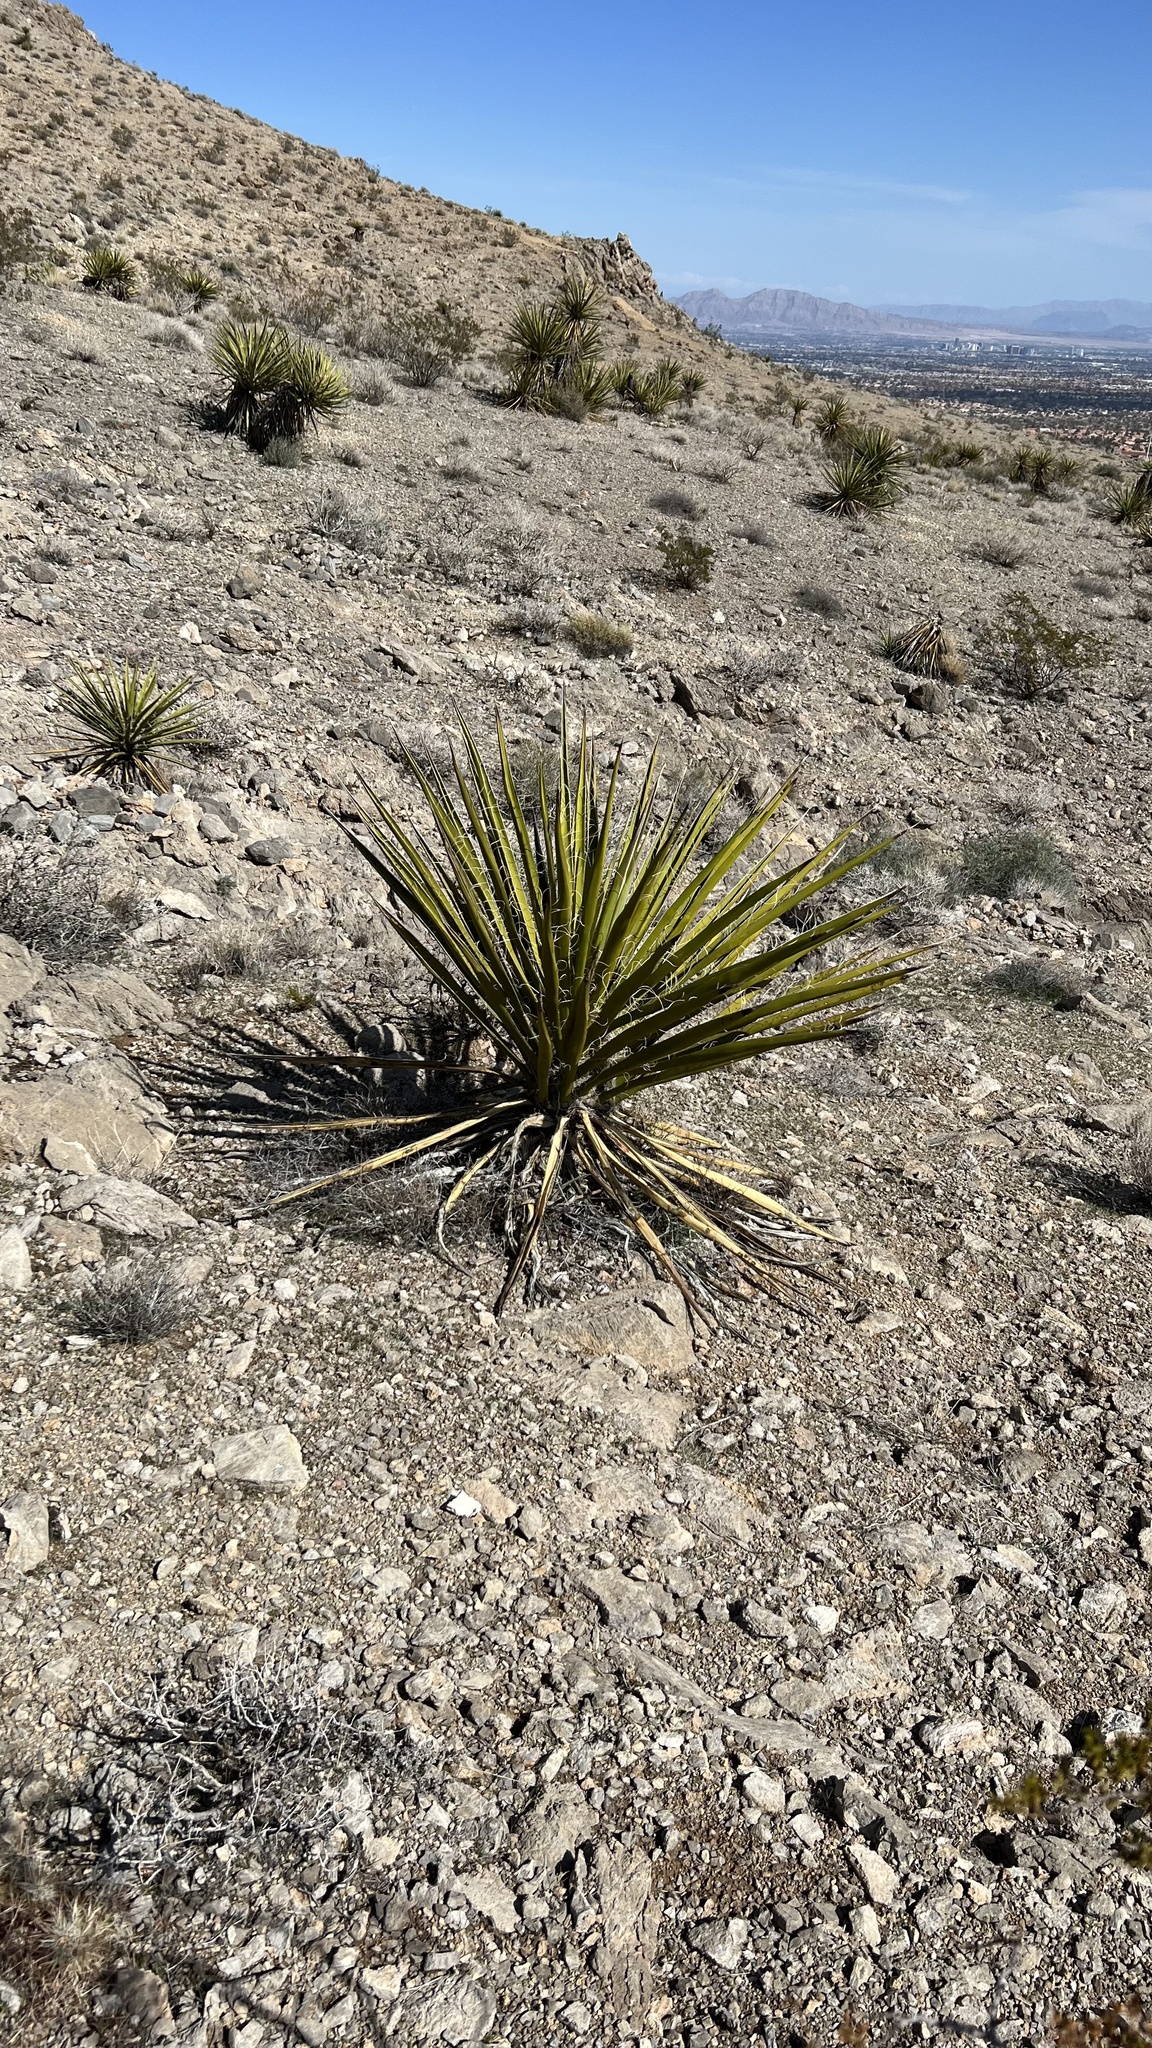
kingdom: Plantae
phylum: Tracheophyta
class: Liliopsida
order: Asparagales
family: Asparagaceae
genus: Yucca
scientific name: Yucca schidigera
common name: Mojave yucca
